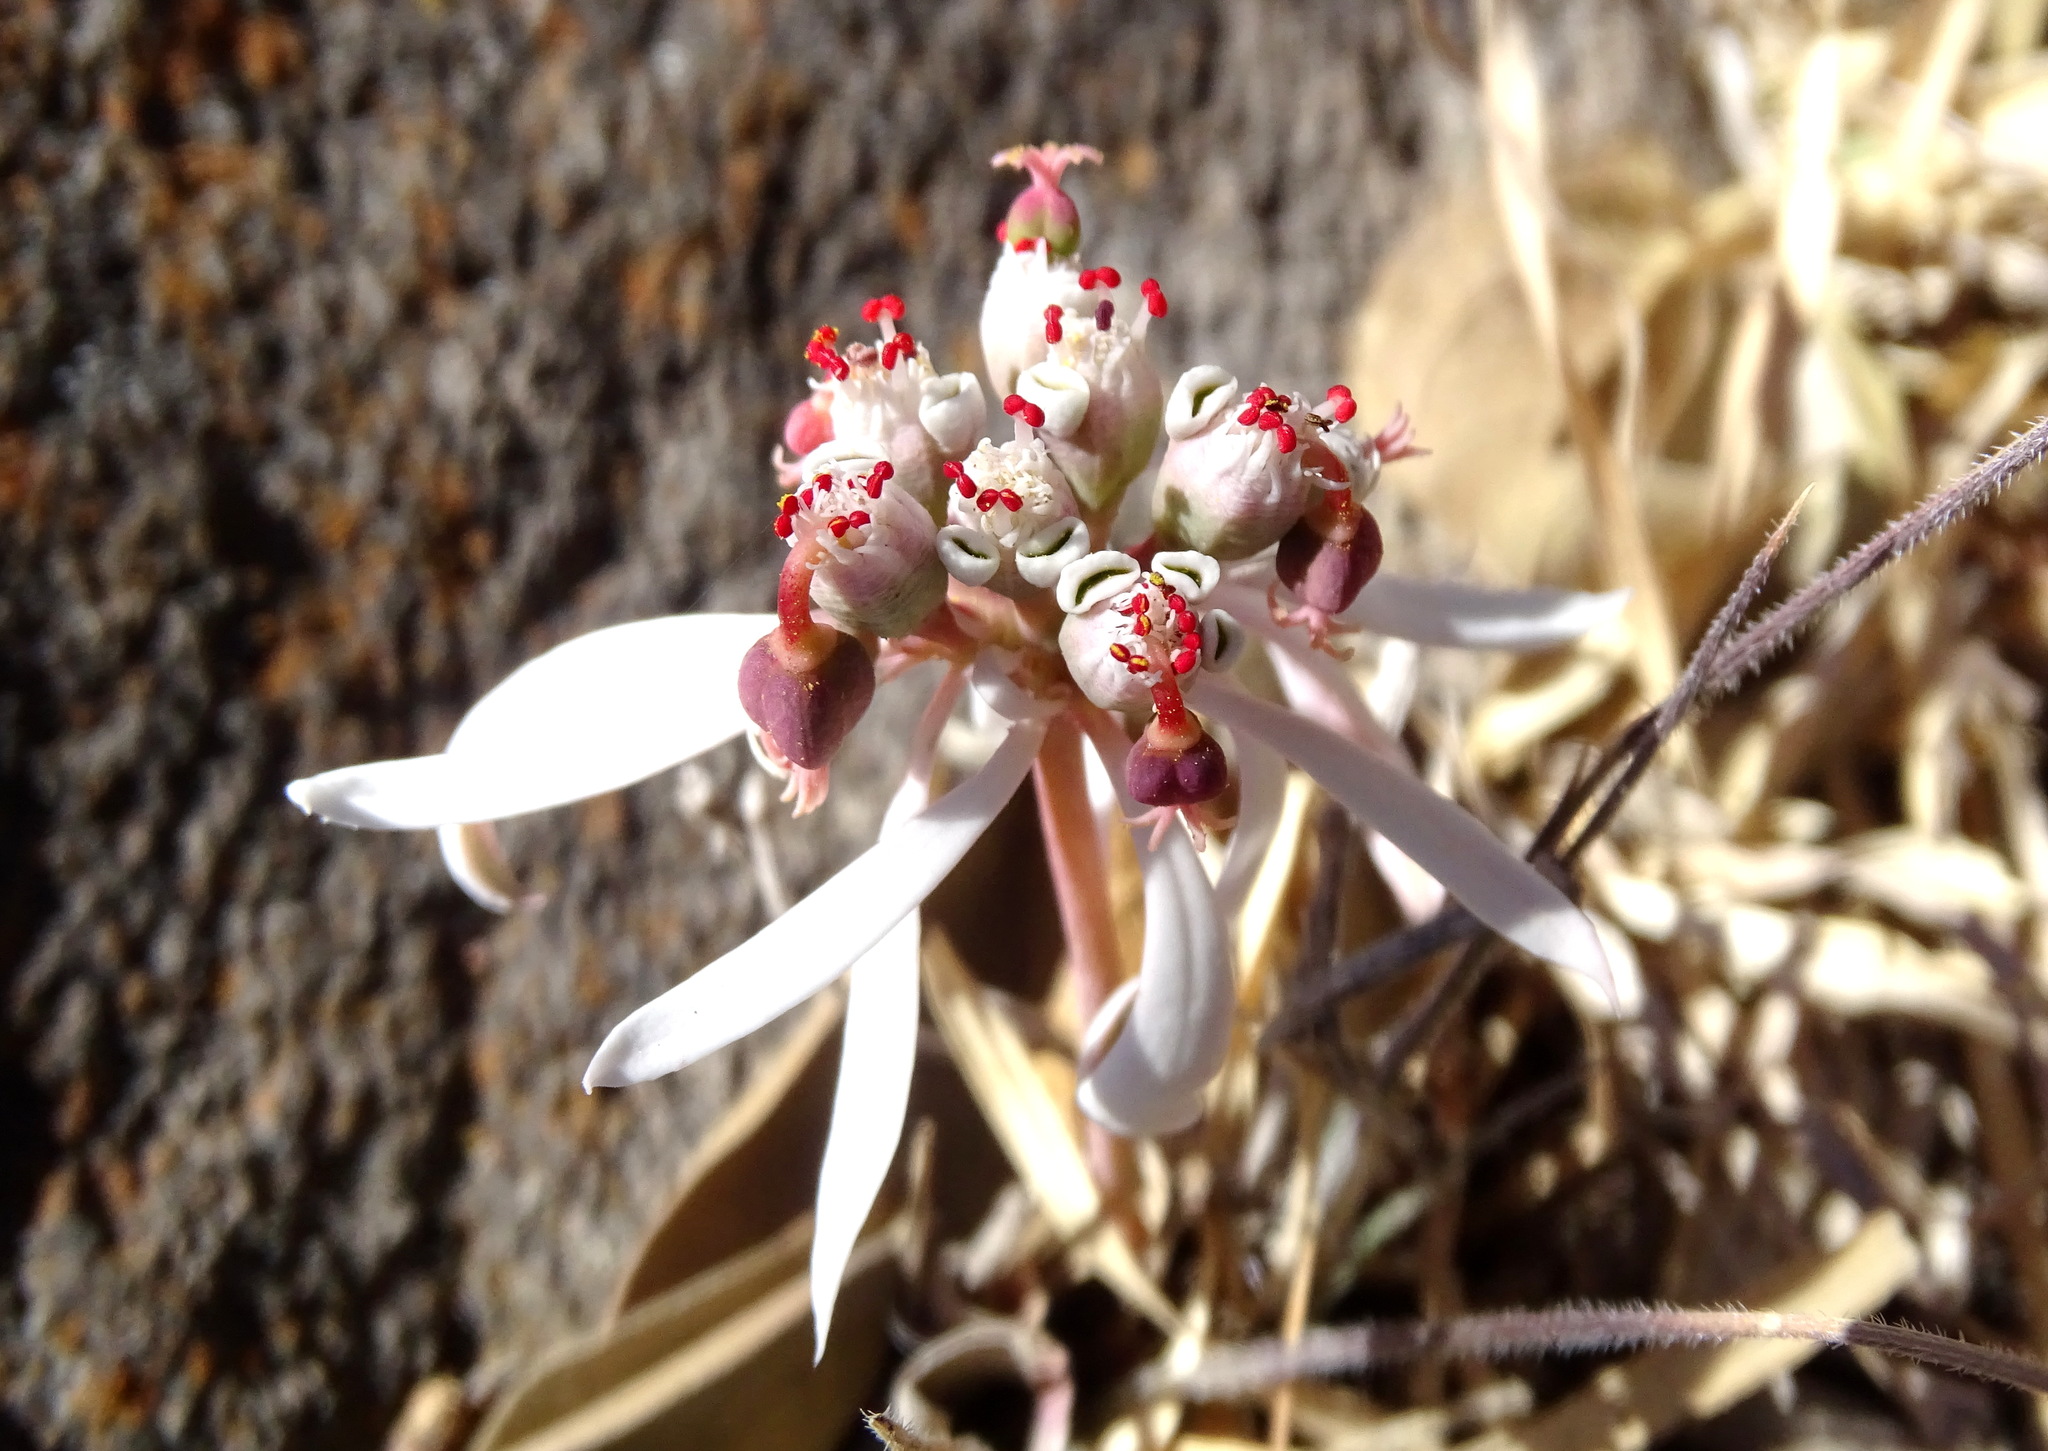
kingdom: Plantae
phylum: Tracheophyta
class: Magnoliopsida
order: Malpighiales
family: Euphorbiaceae
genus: Euphorbia
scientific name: Euphorbia radians
